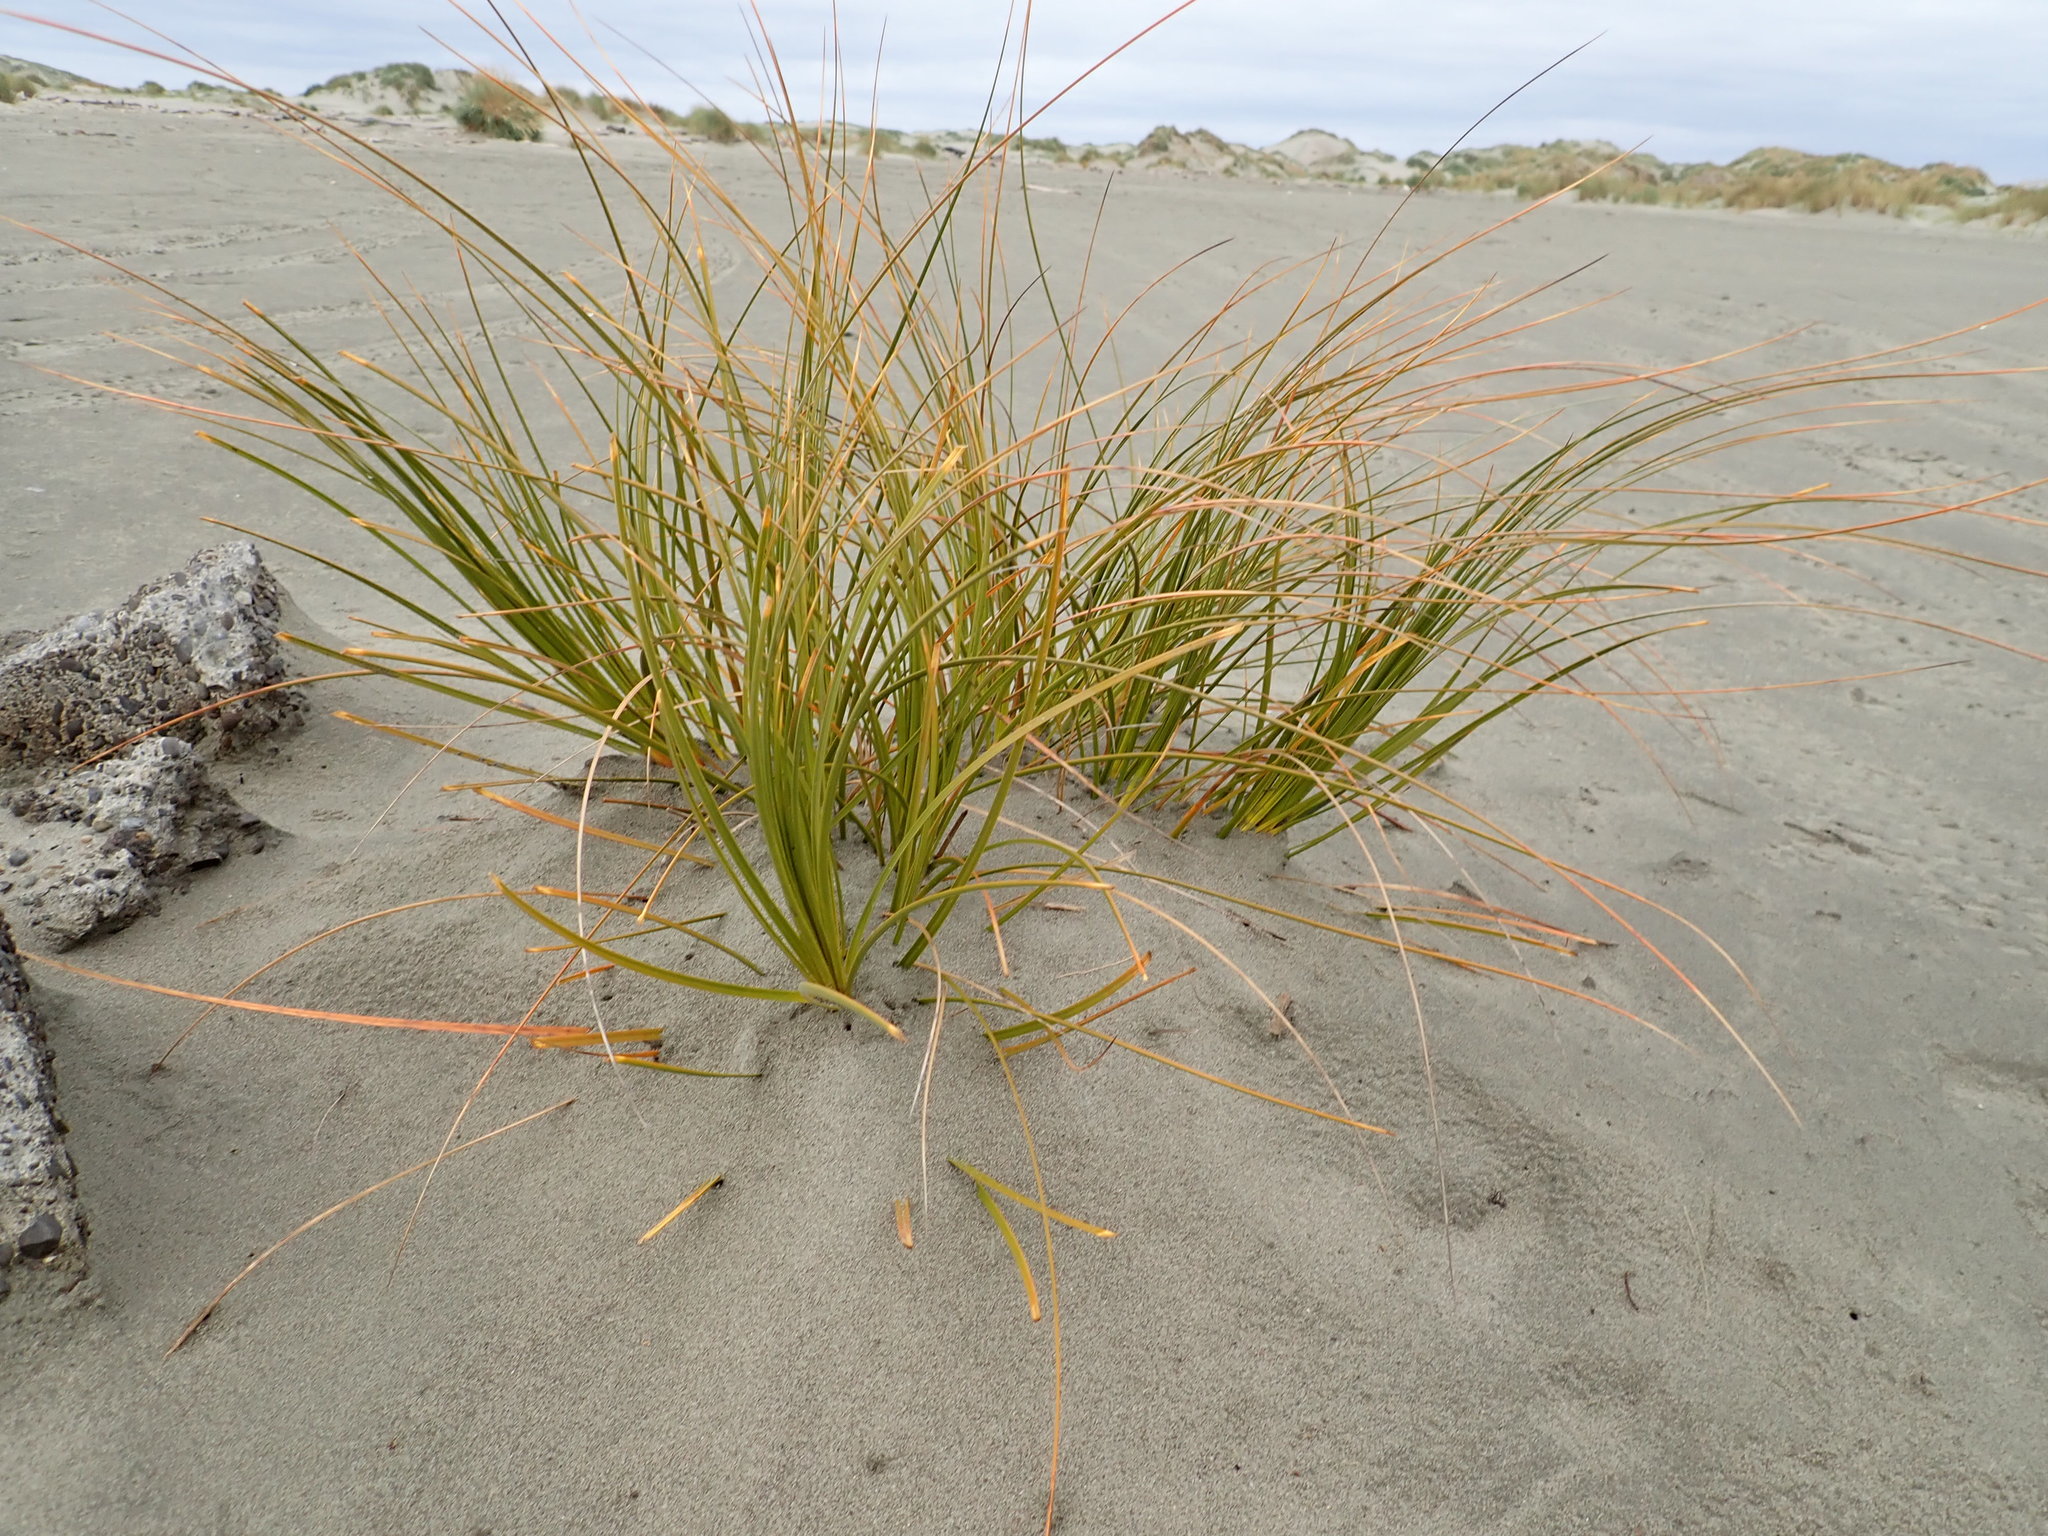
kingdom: Plantae
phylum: Tracheophyta
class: Liliopsida
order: Poales
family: Cyperaceae
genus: Ficinia
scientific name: Ficinia spiralis
